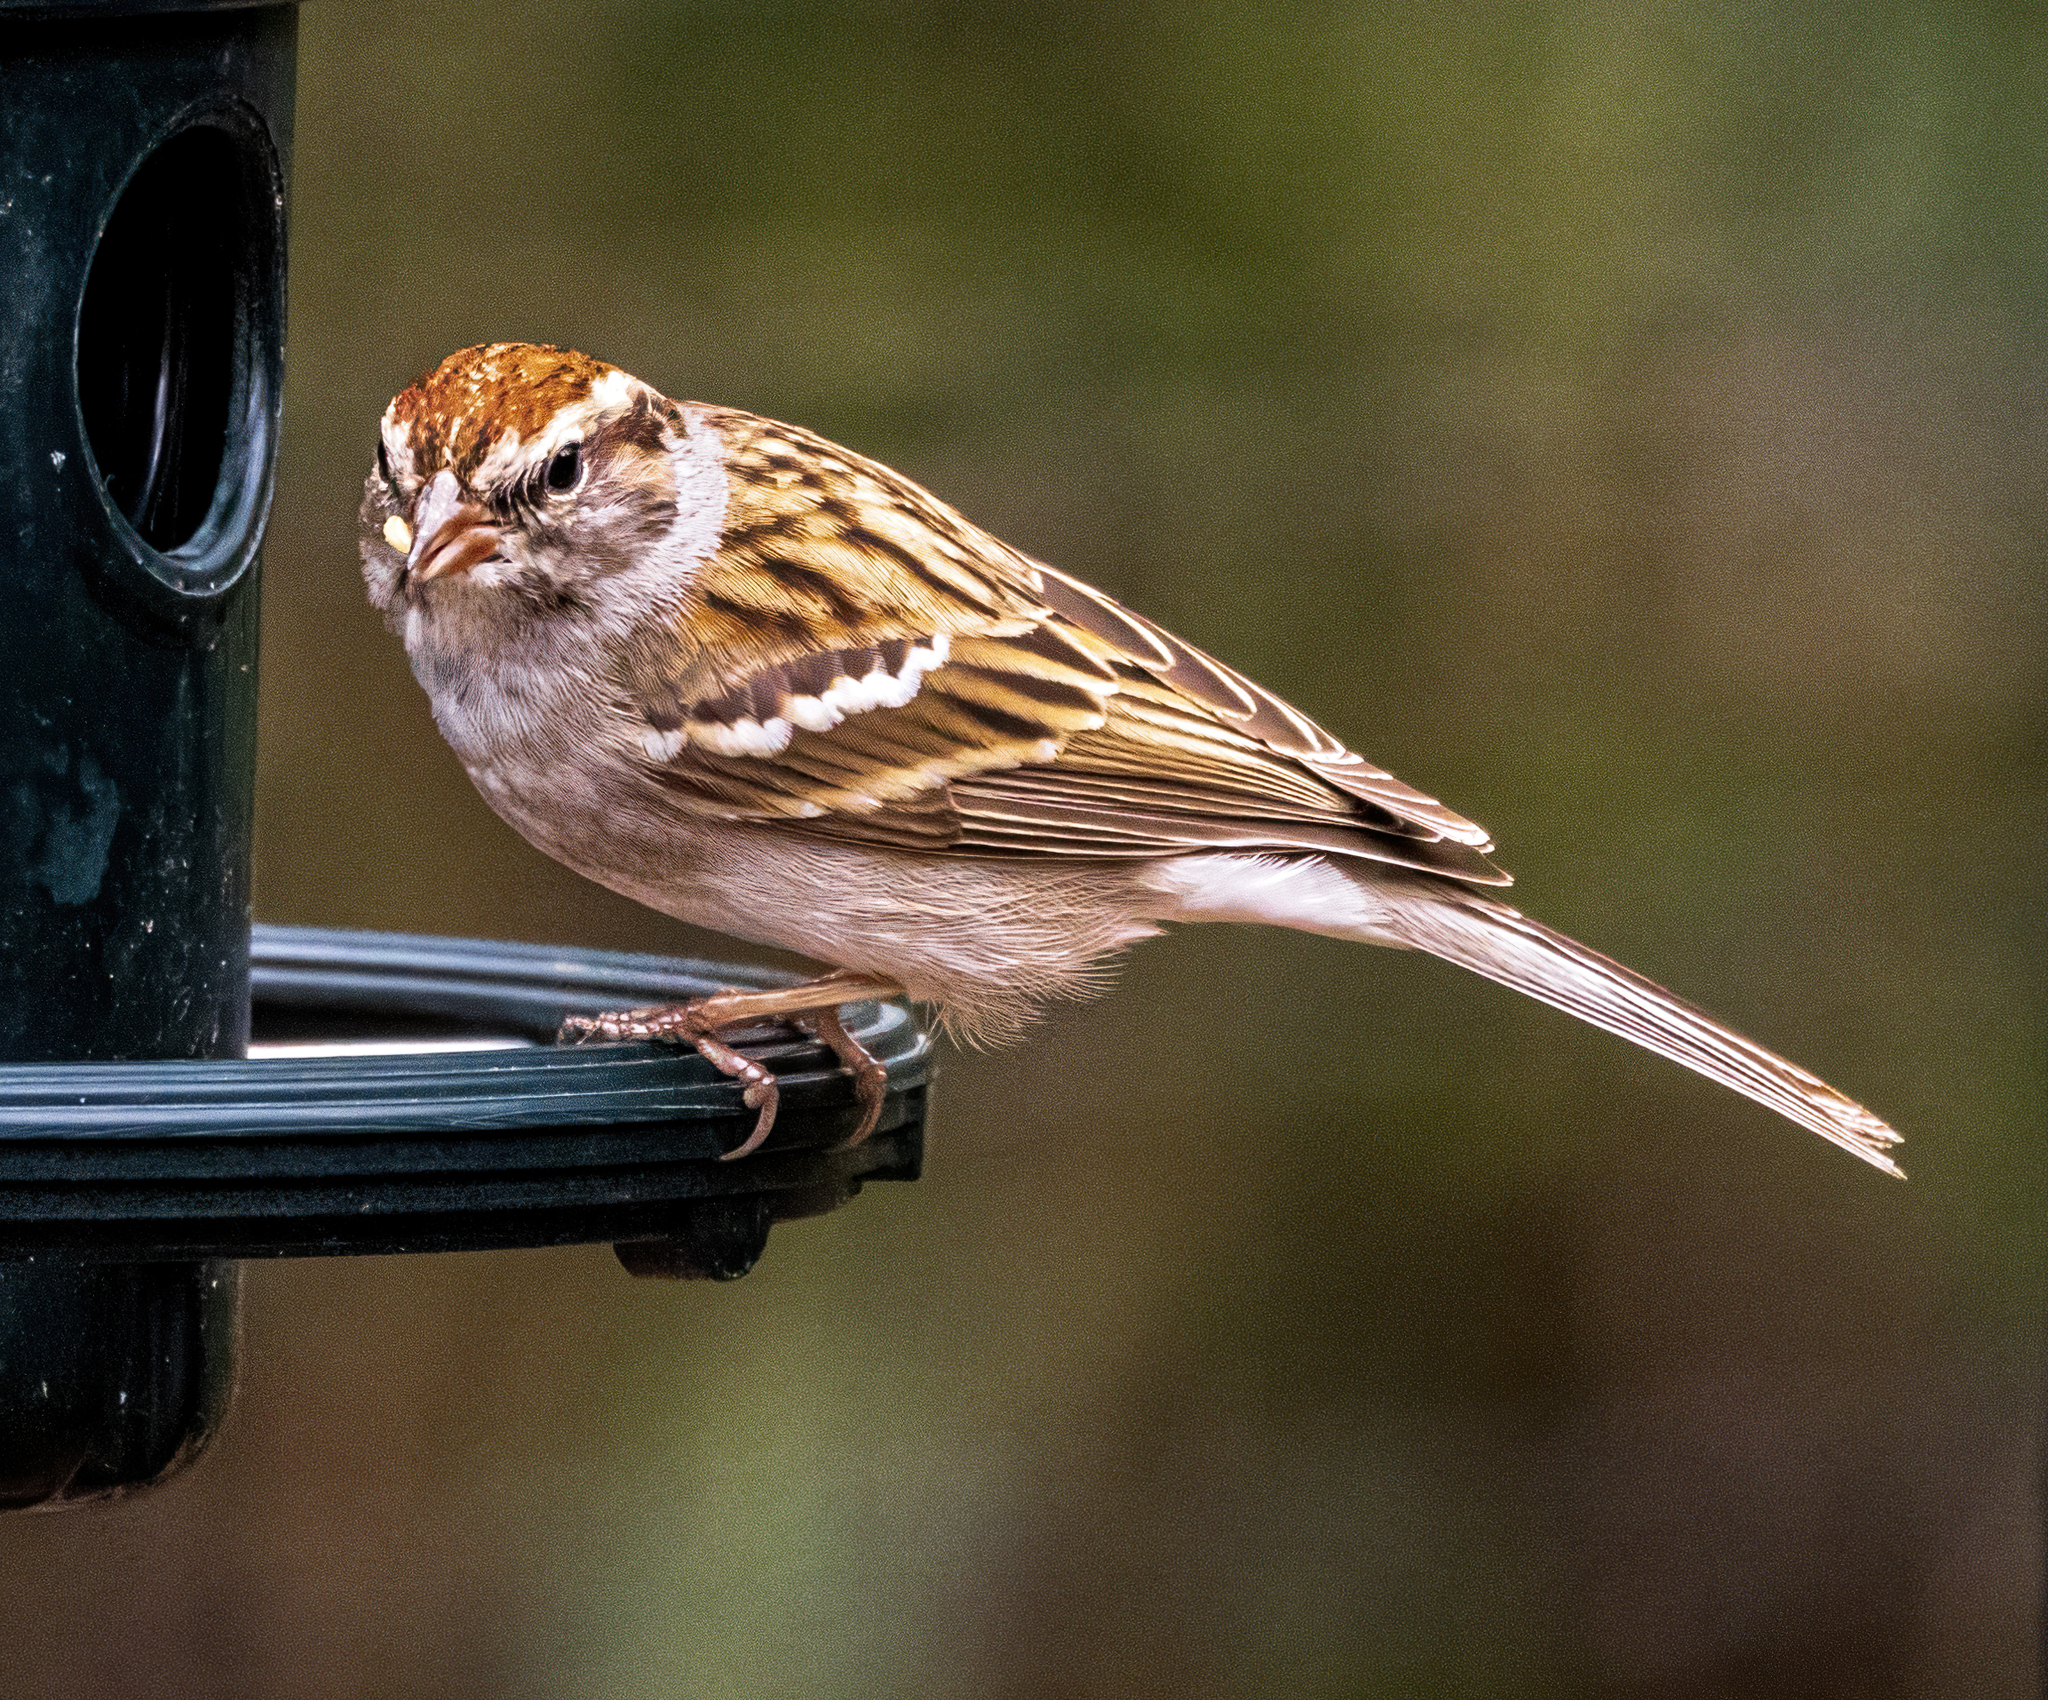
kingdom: Animalia
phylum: Chordata
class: Aves
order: Passeriformes
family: Passerellidae
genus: Spizella
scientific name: Spizella passerina
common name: Chipping sparrow
